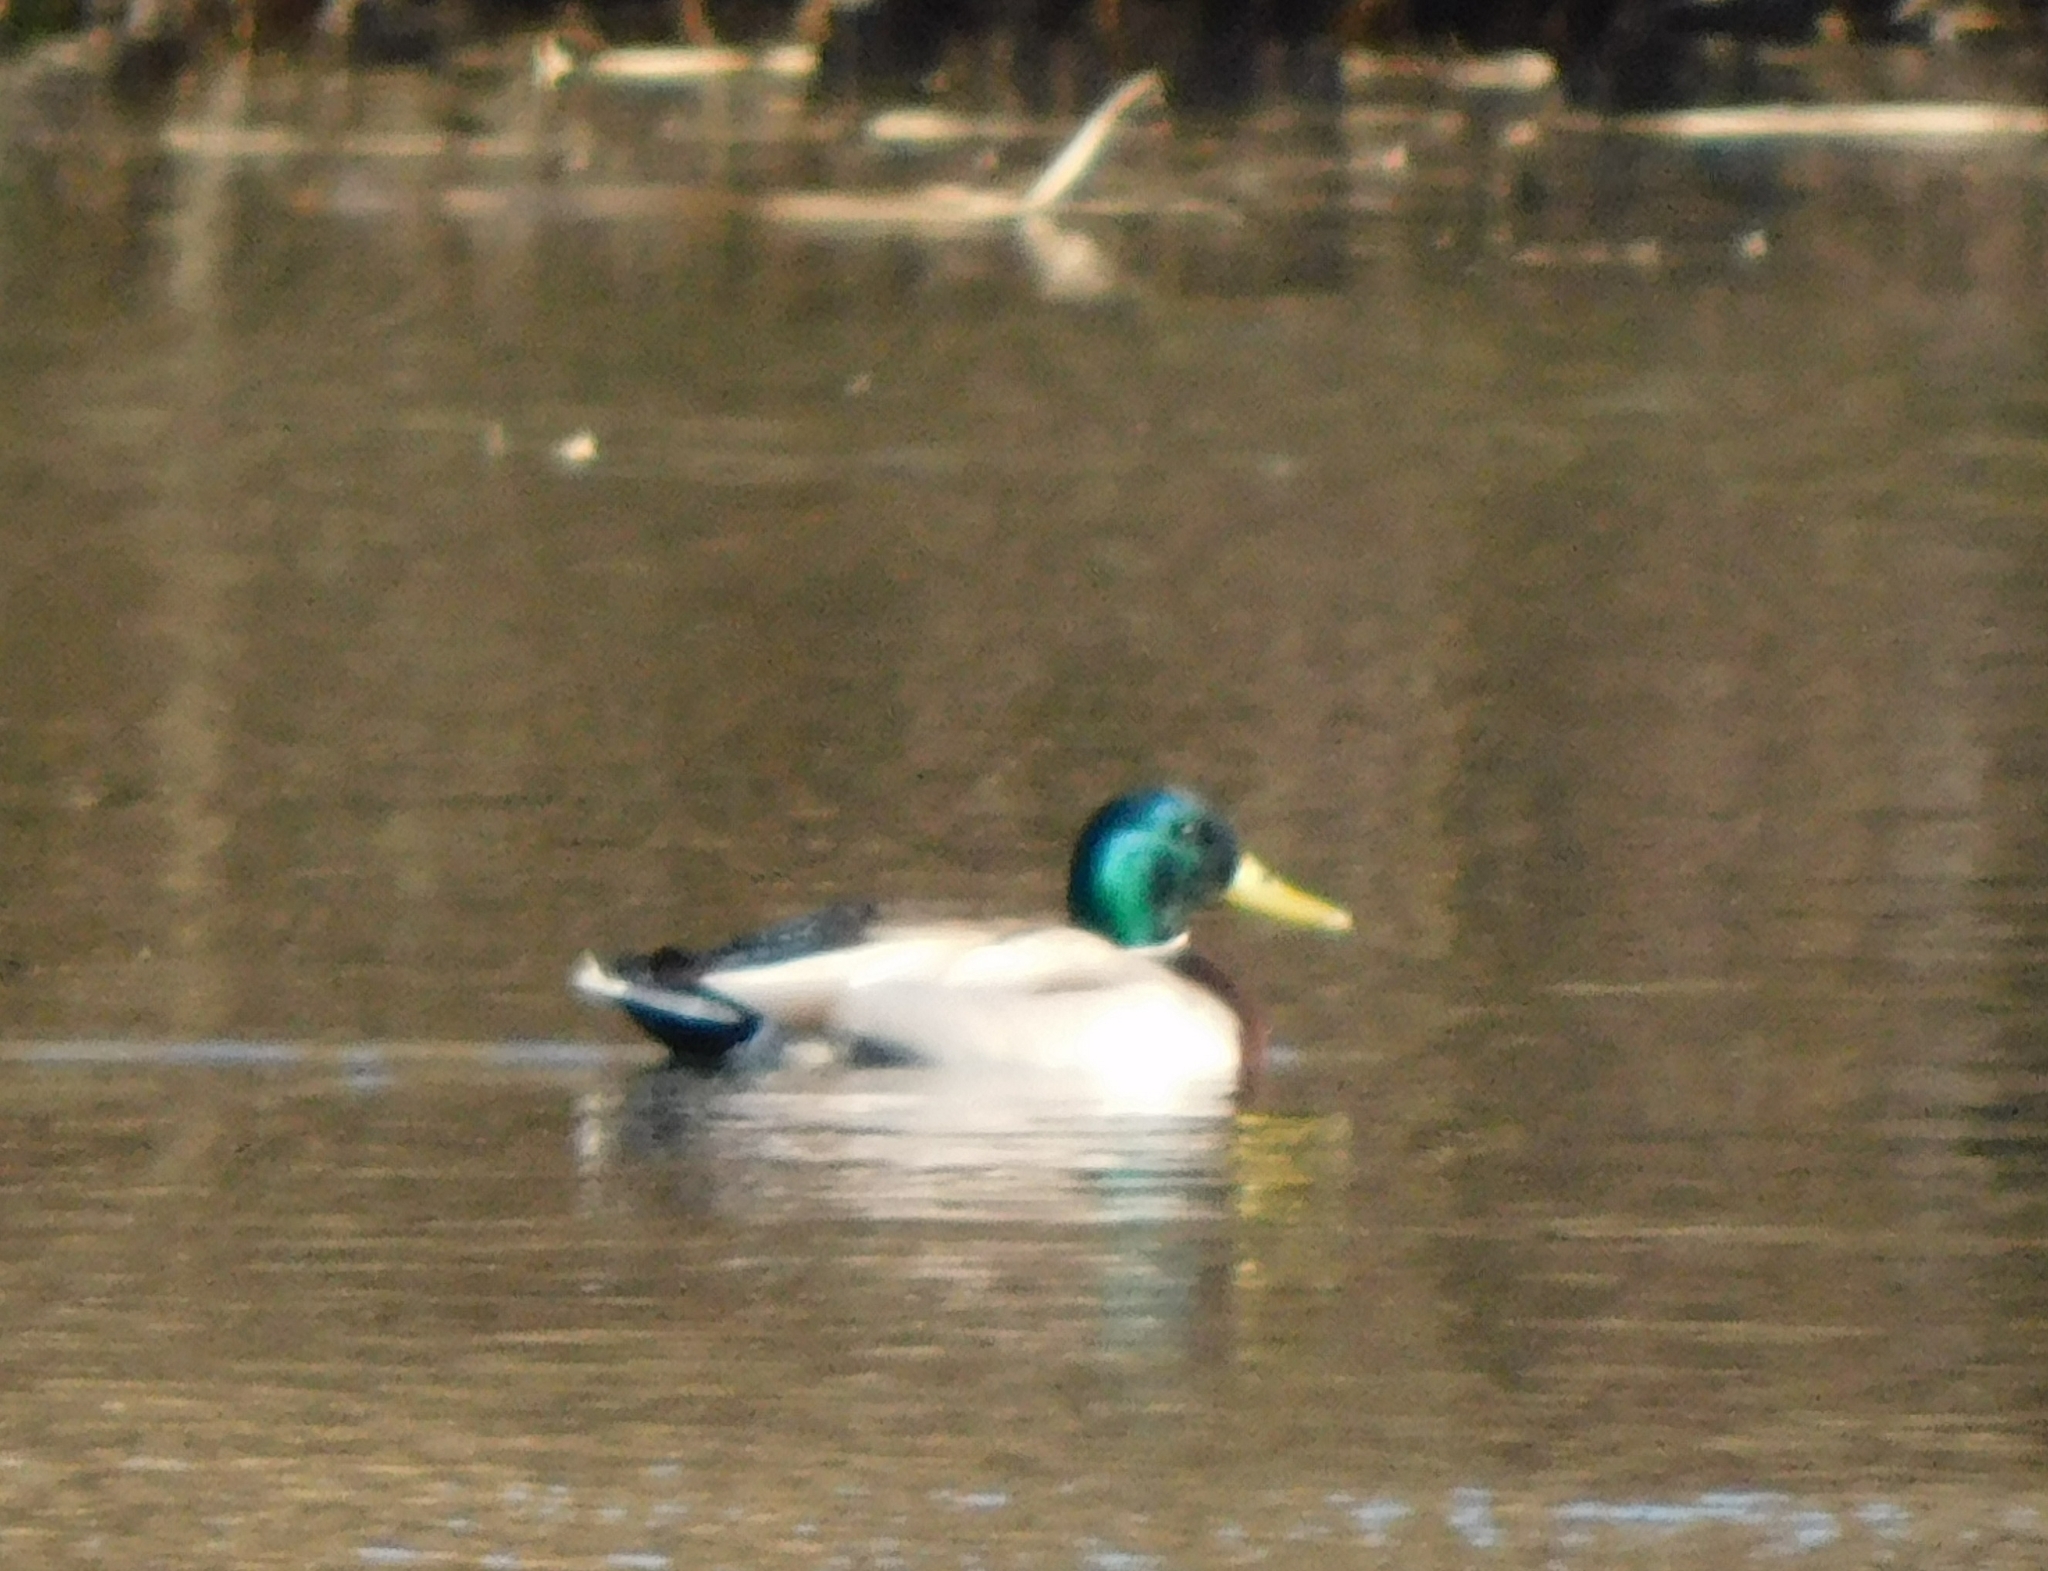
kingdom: Animalia
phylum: Chordata
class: Aves
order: Anseriformes
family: Anatidae
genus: Anas
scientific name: Anas platyrhynchos
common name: Mallard
